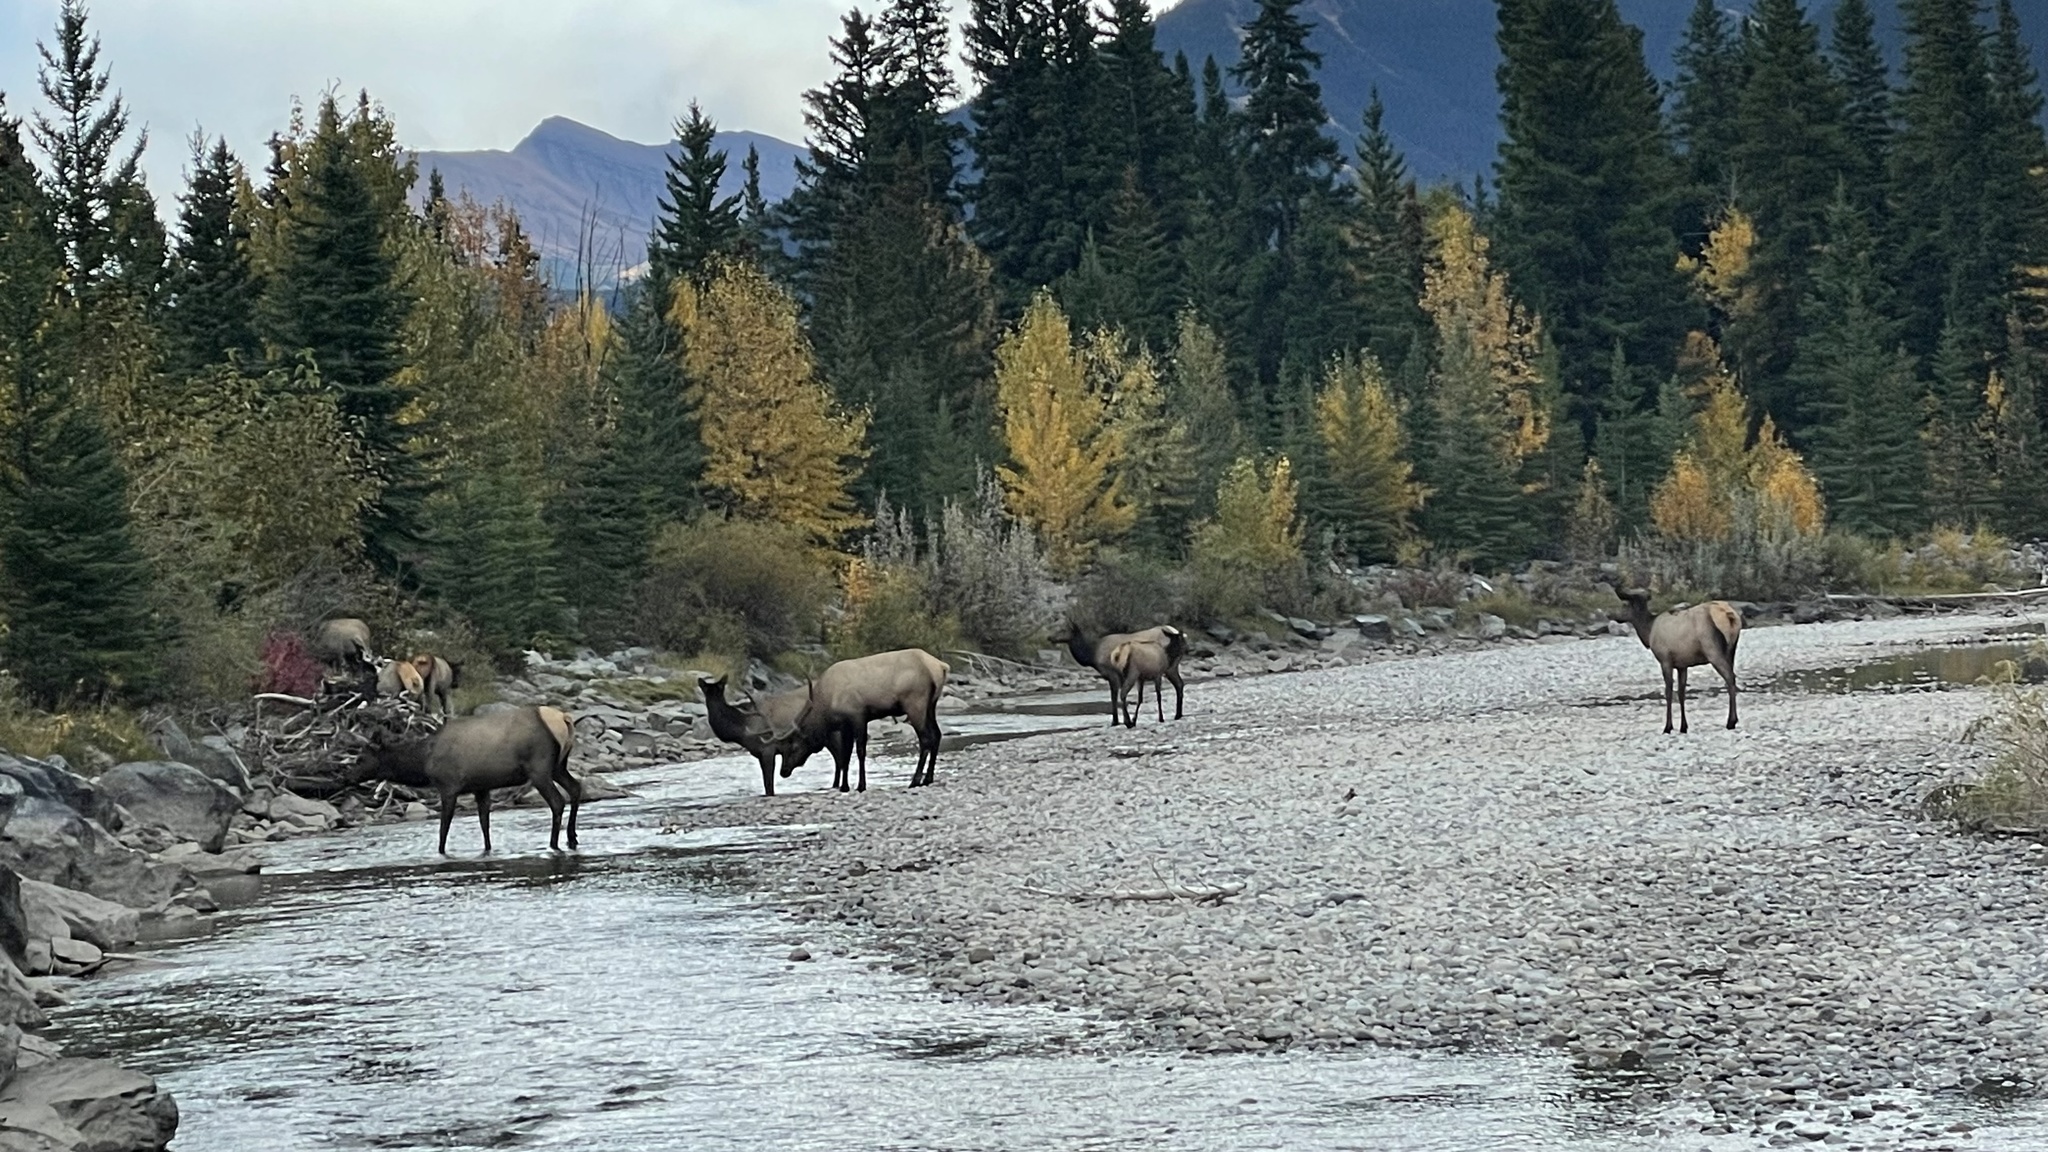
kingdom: Animalia
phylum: Chordata
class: Mammalia
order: Artiodactyla
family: Cervidae
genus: Cervus
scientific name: Cervus elaphus
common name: Red deer
